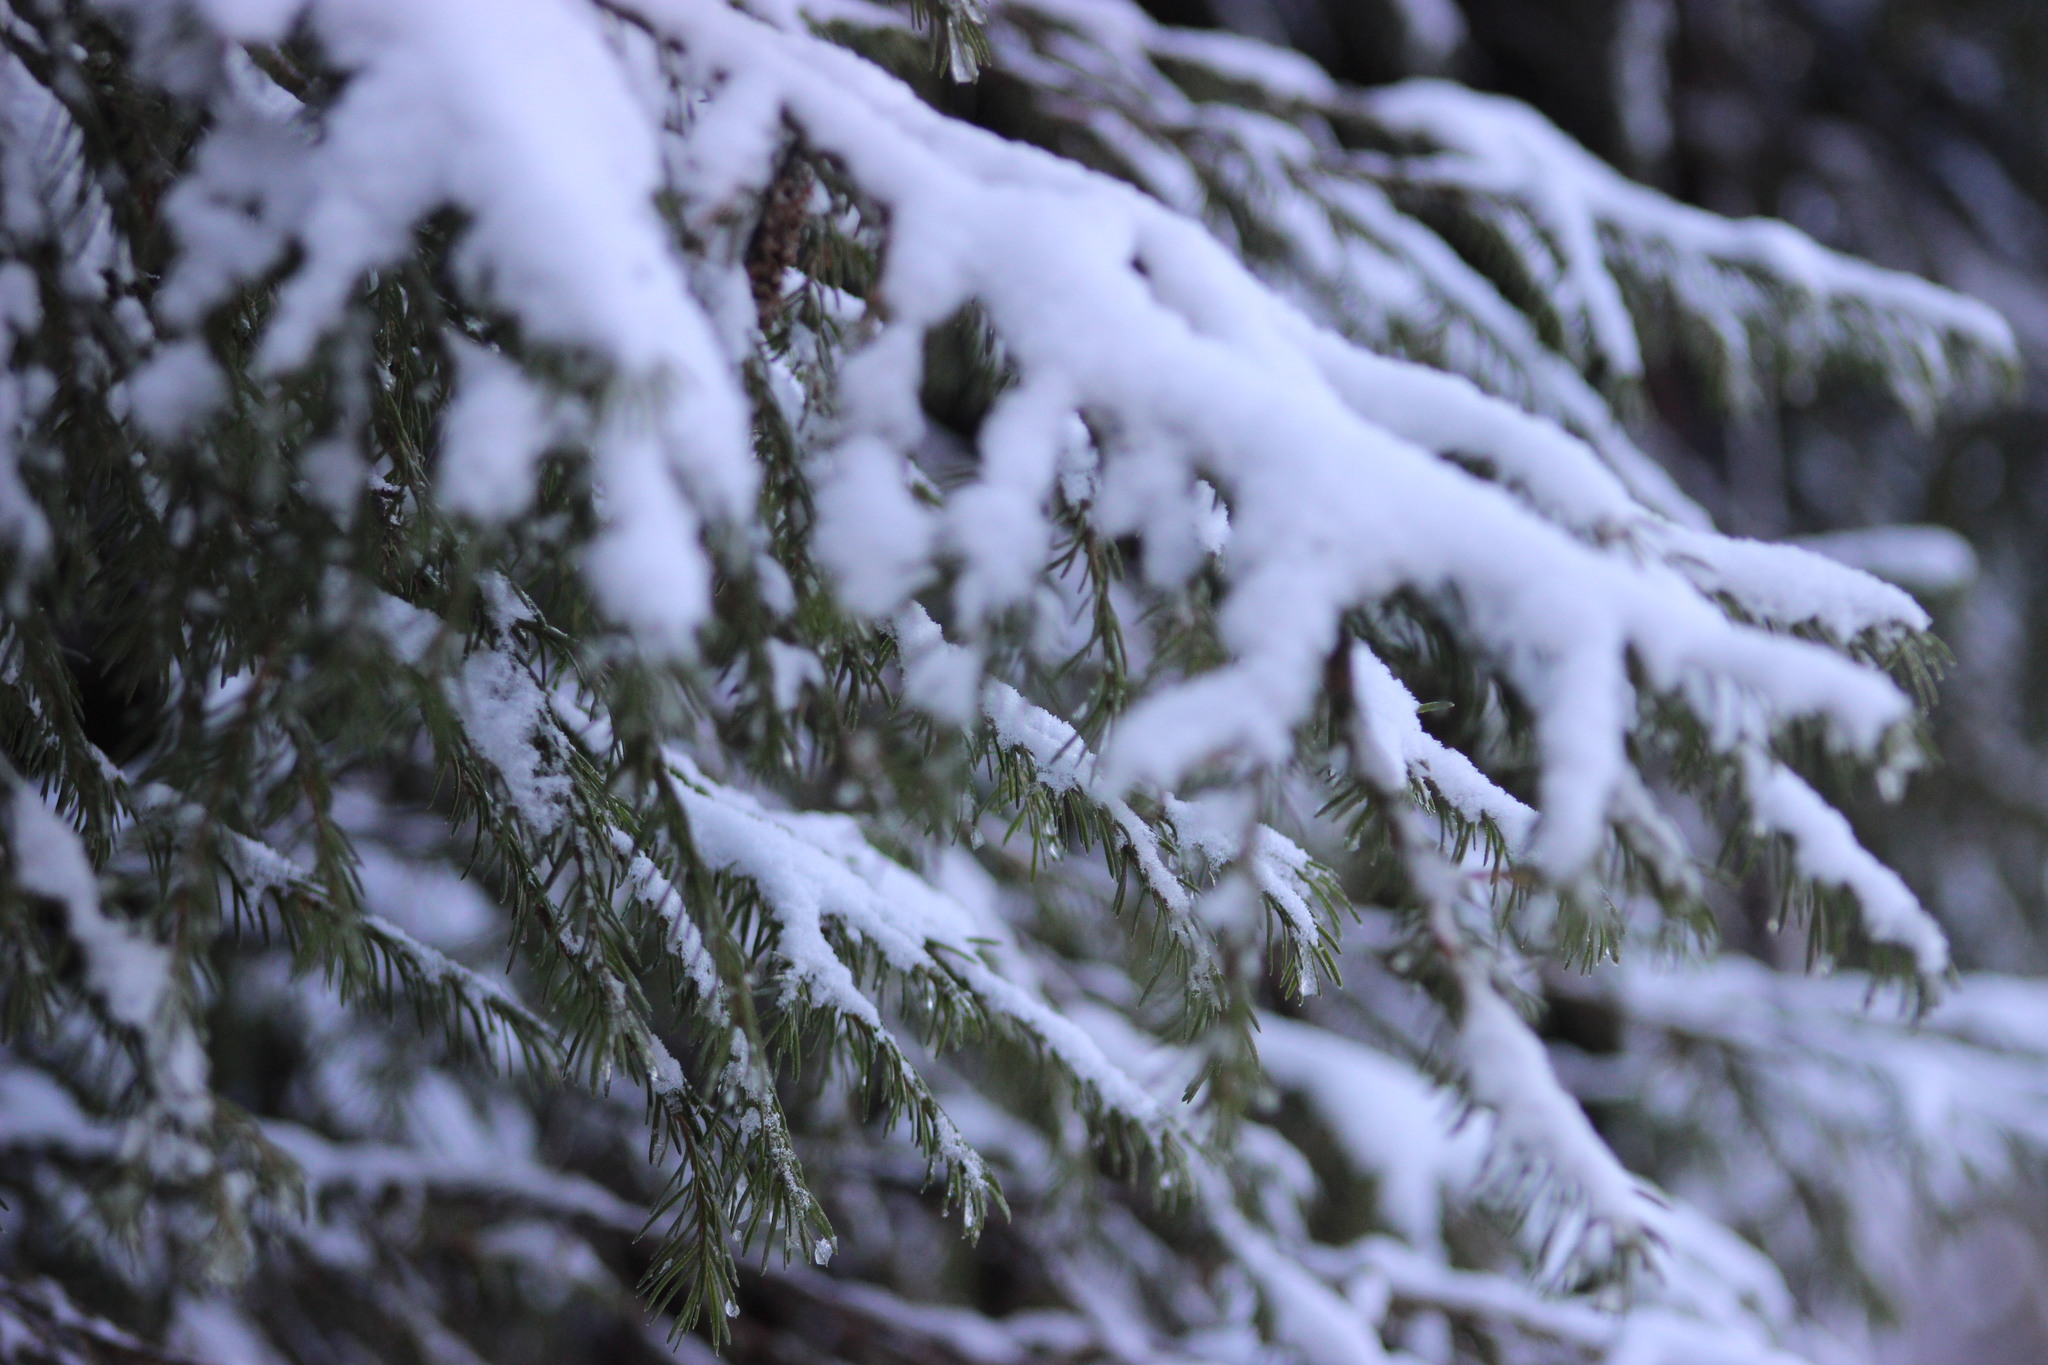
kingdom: Plantae
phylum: Tracheophyta
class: Pinopsida
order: Pinales
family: Pinaceae
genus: Picea
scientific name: Picea obovata
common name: Siberian spruce
